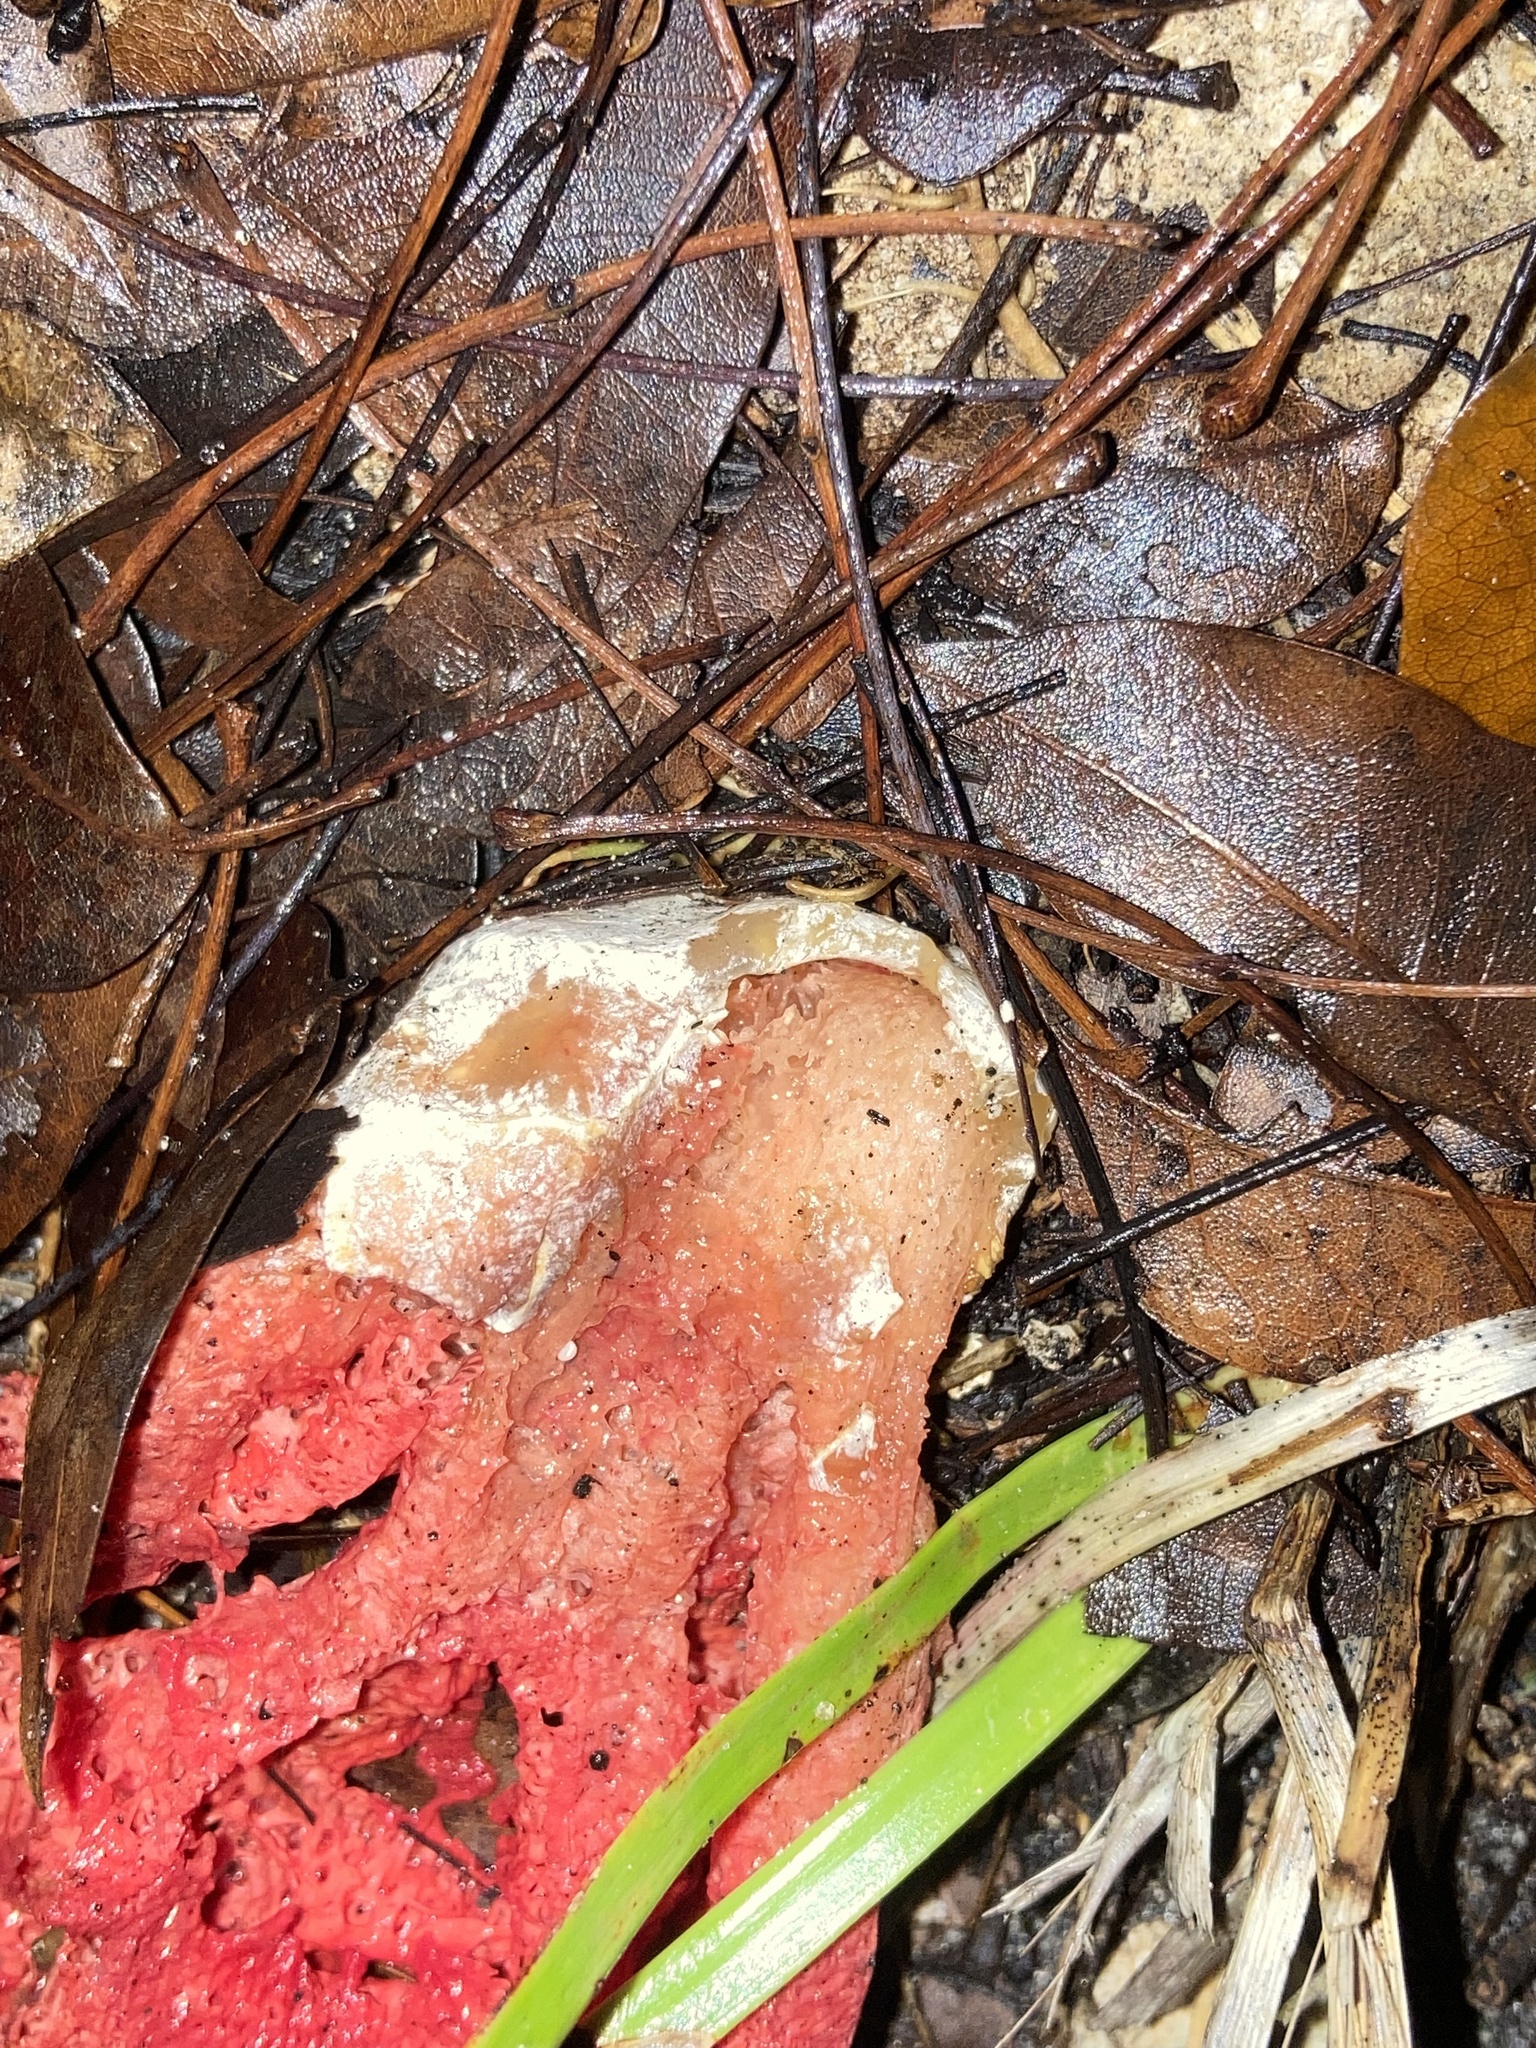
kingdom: Fungi
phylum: Basidiomycota
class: Agaricomycetes
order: Phallales
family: Phallaceae
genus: Clathrus
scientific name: Clathrus crispatus
